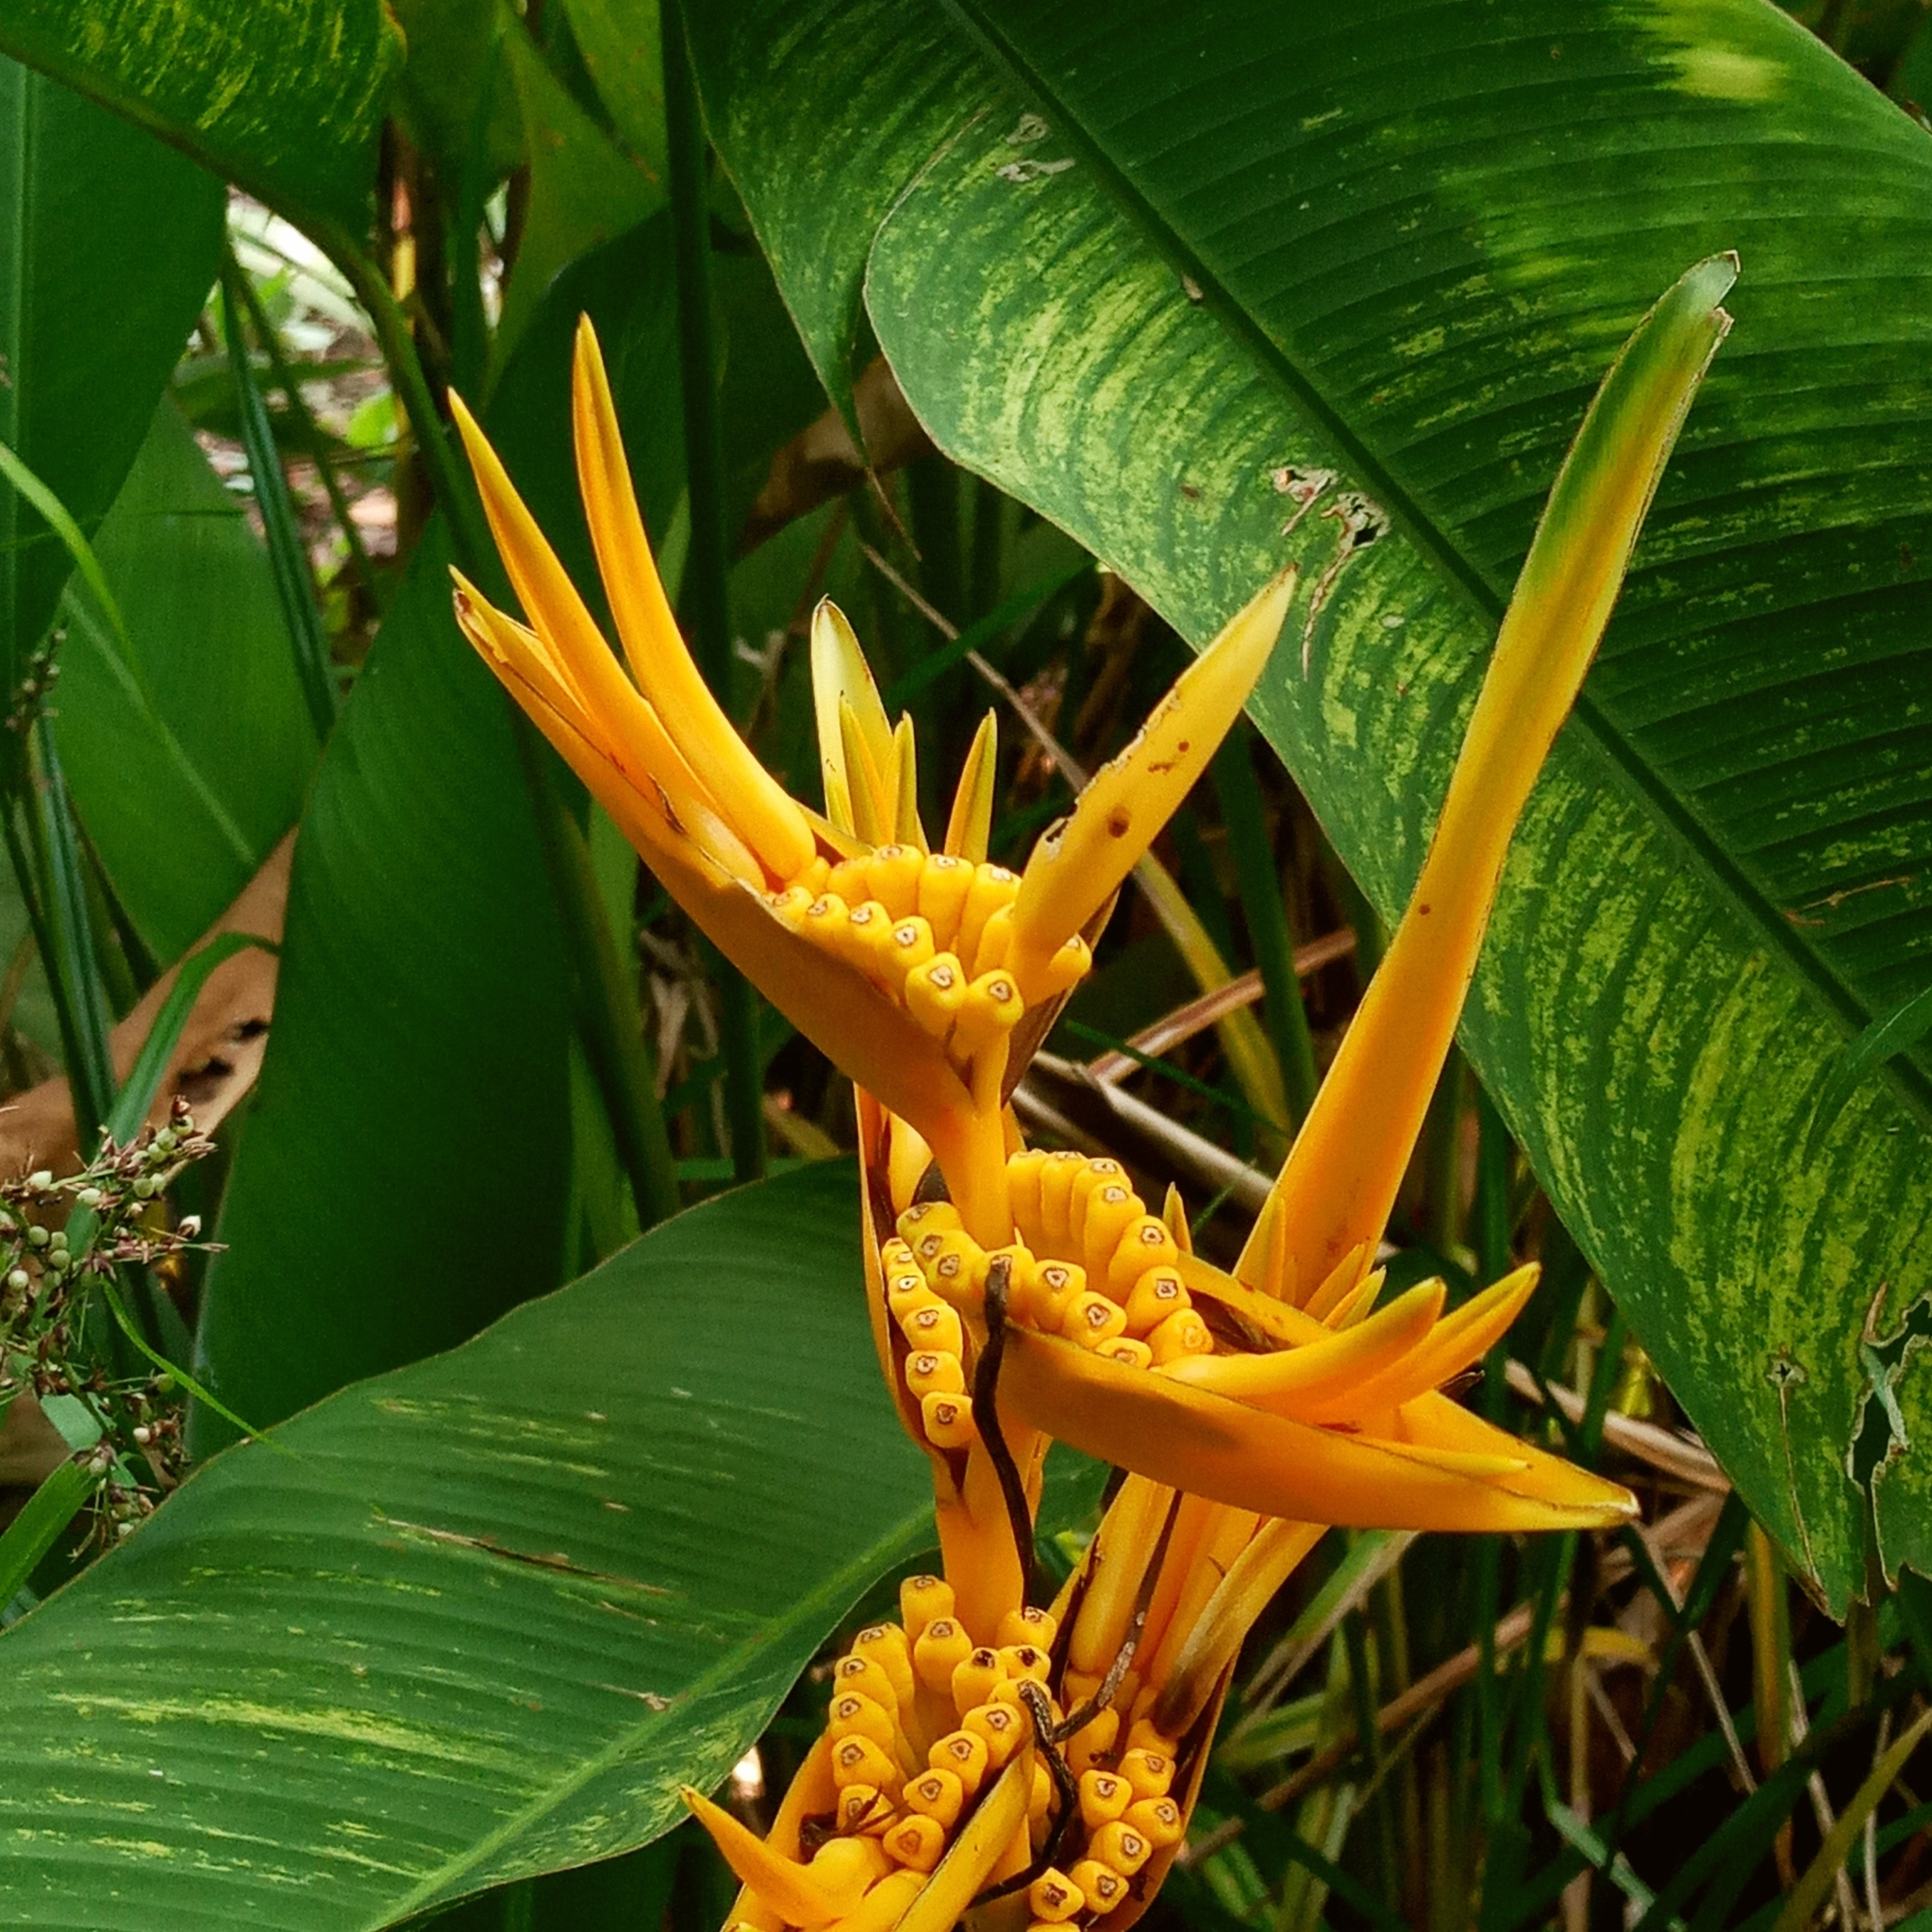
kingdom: Plantae
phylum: Tracheophyta
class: Liliopsida
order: Zingiberales
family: Heliconiaceae
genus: Heliconia
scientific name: Heliconia nickeriensis
